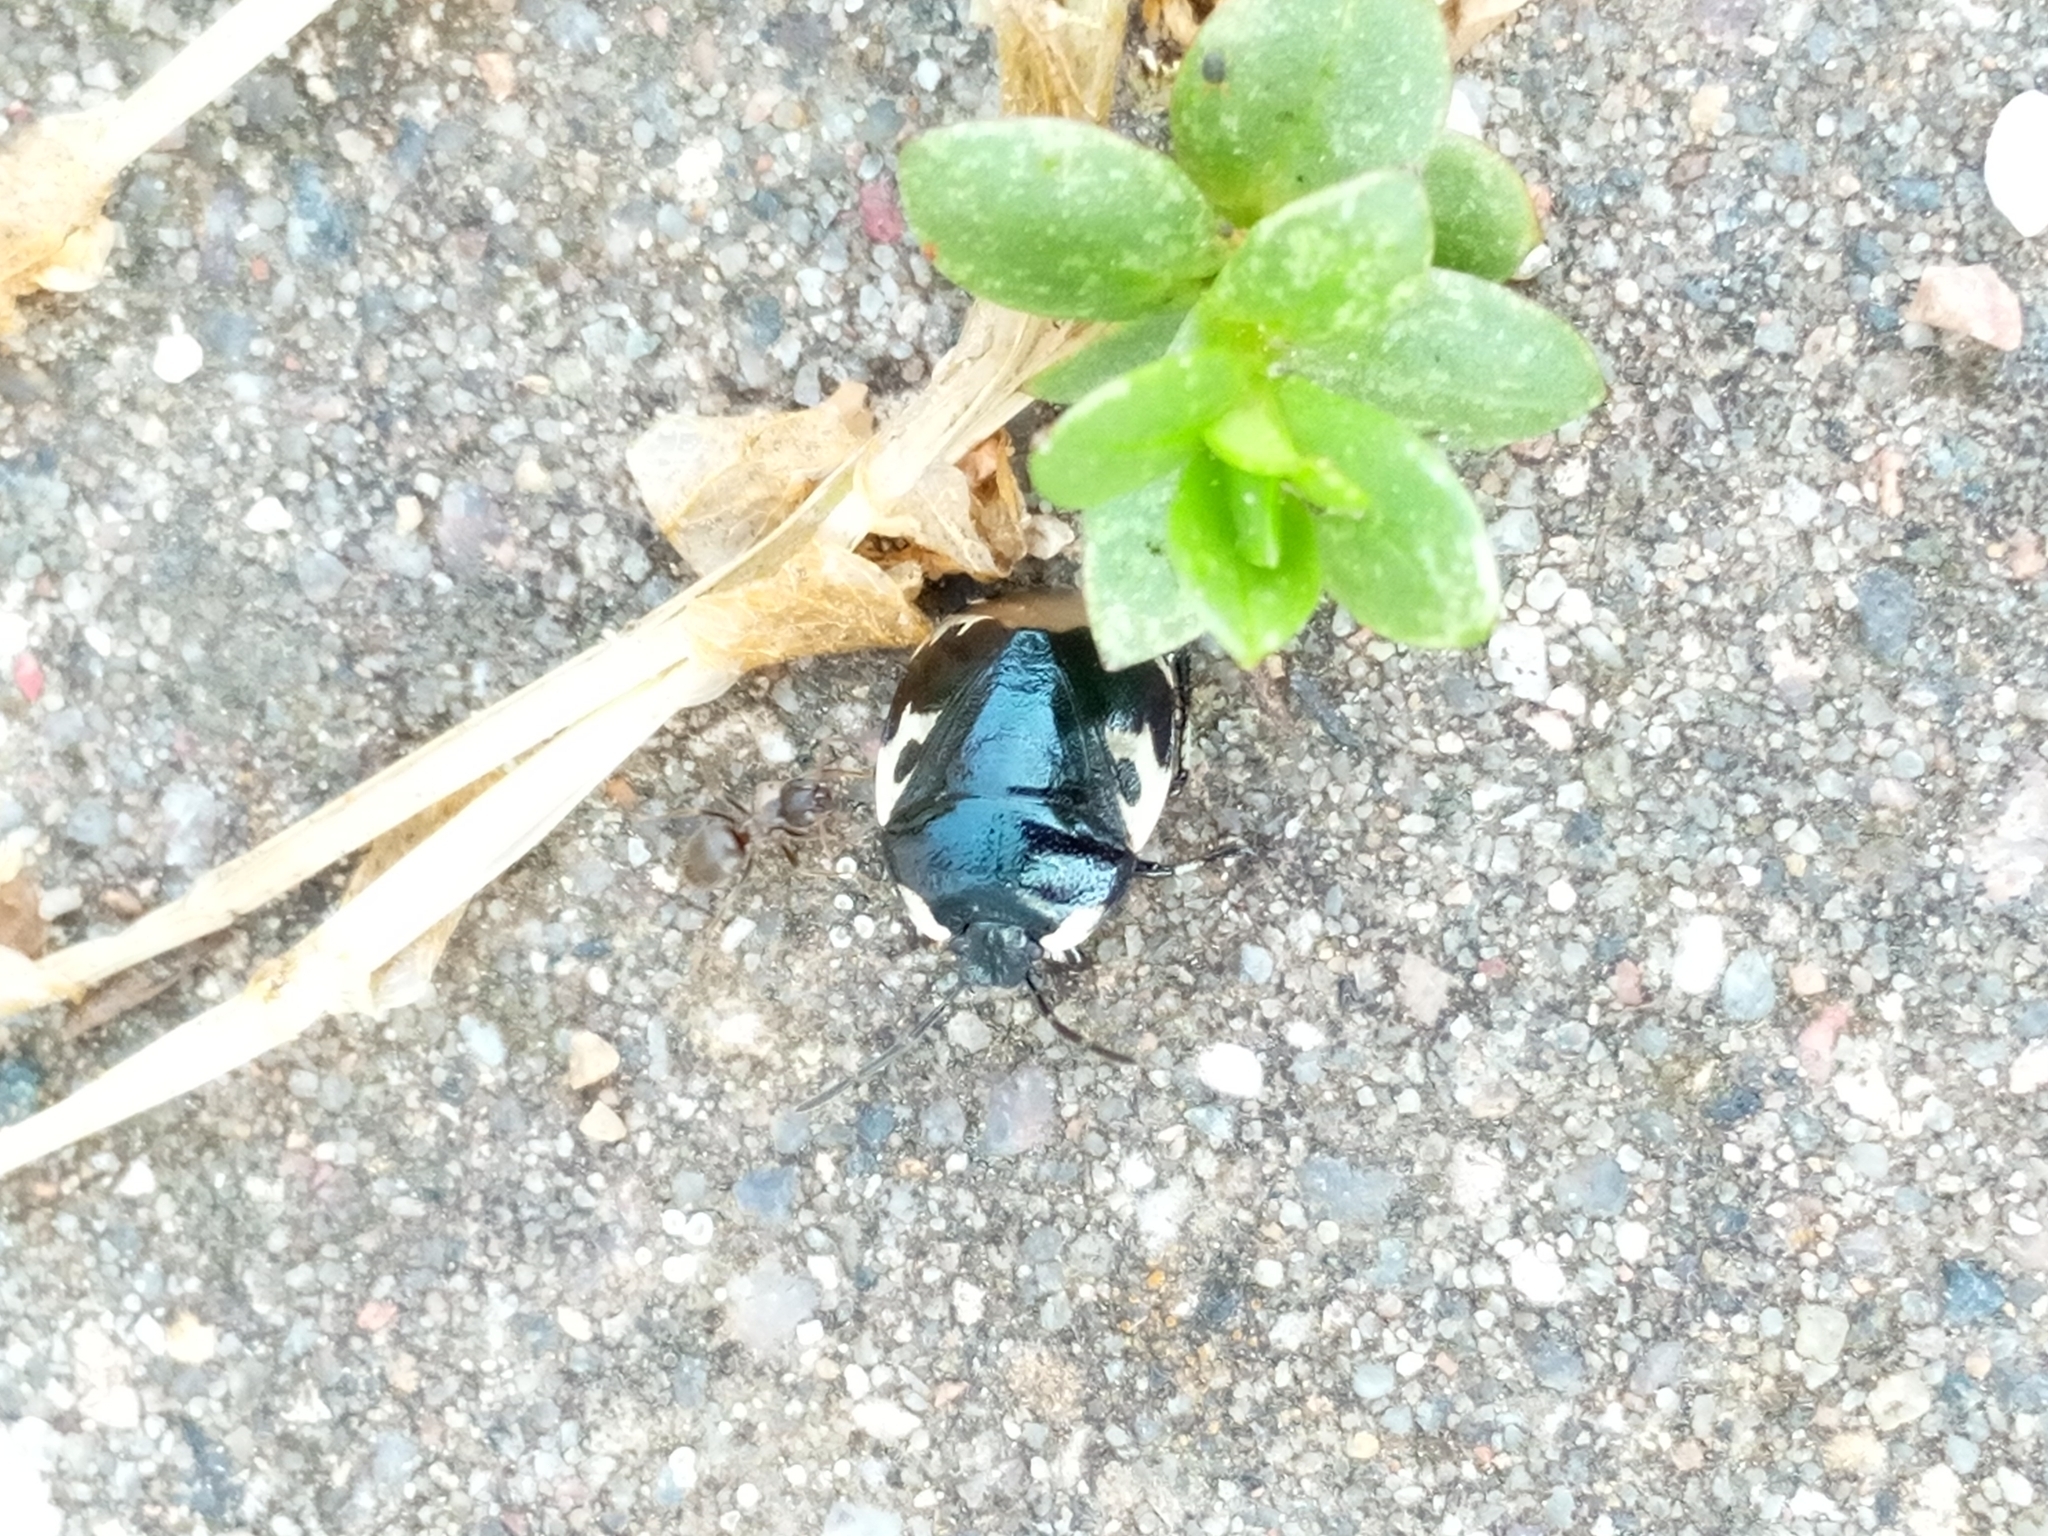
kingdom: Animalia
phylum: Arthropoda
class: Insecta
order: Hemiptera
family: Cydnidae
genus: Tritomegas
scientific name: Tritomegas bicolor
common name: Pied shieldbug
